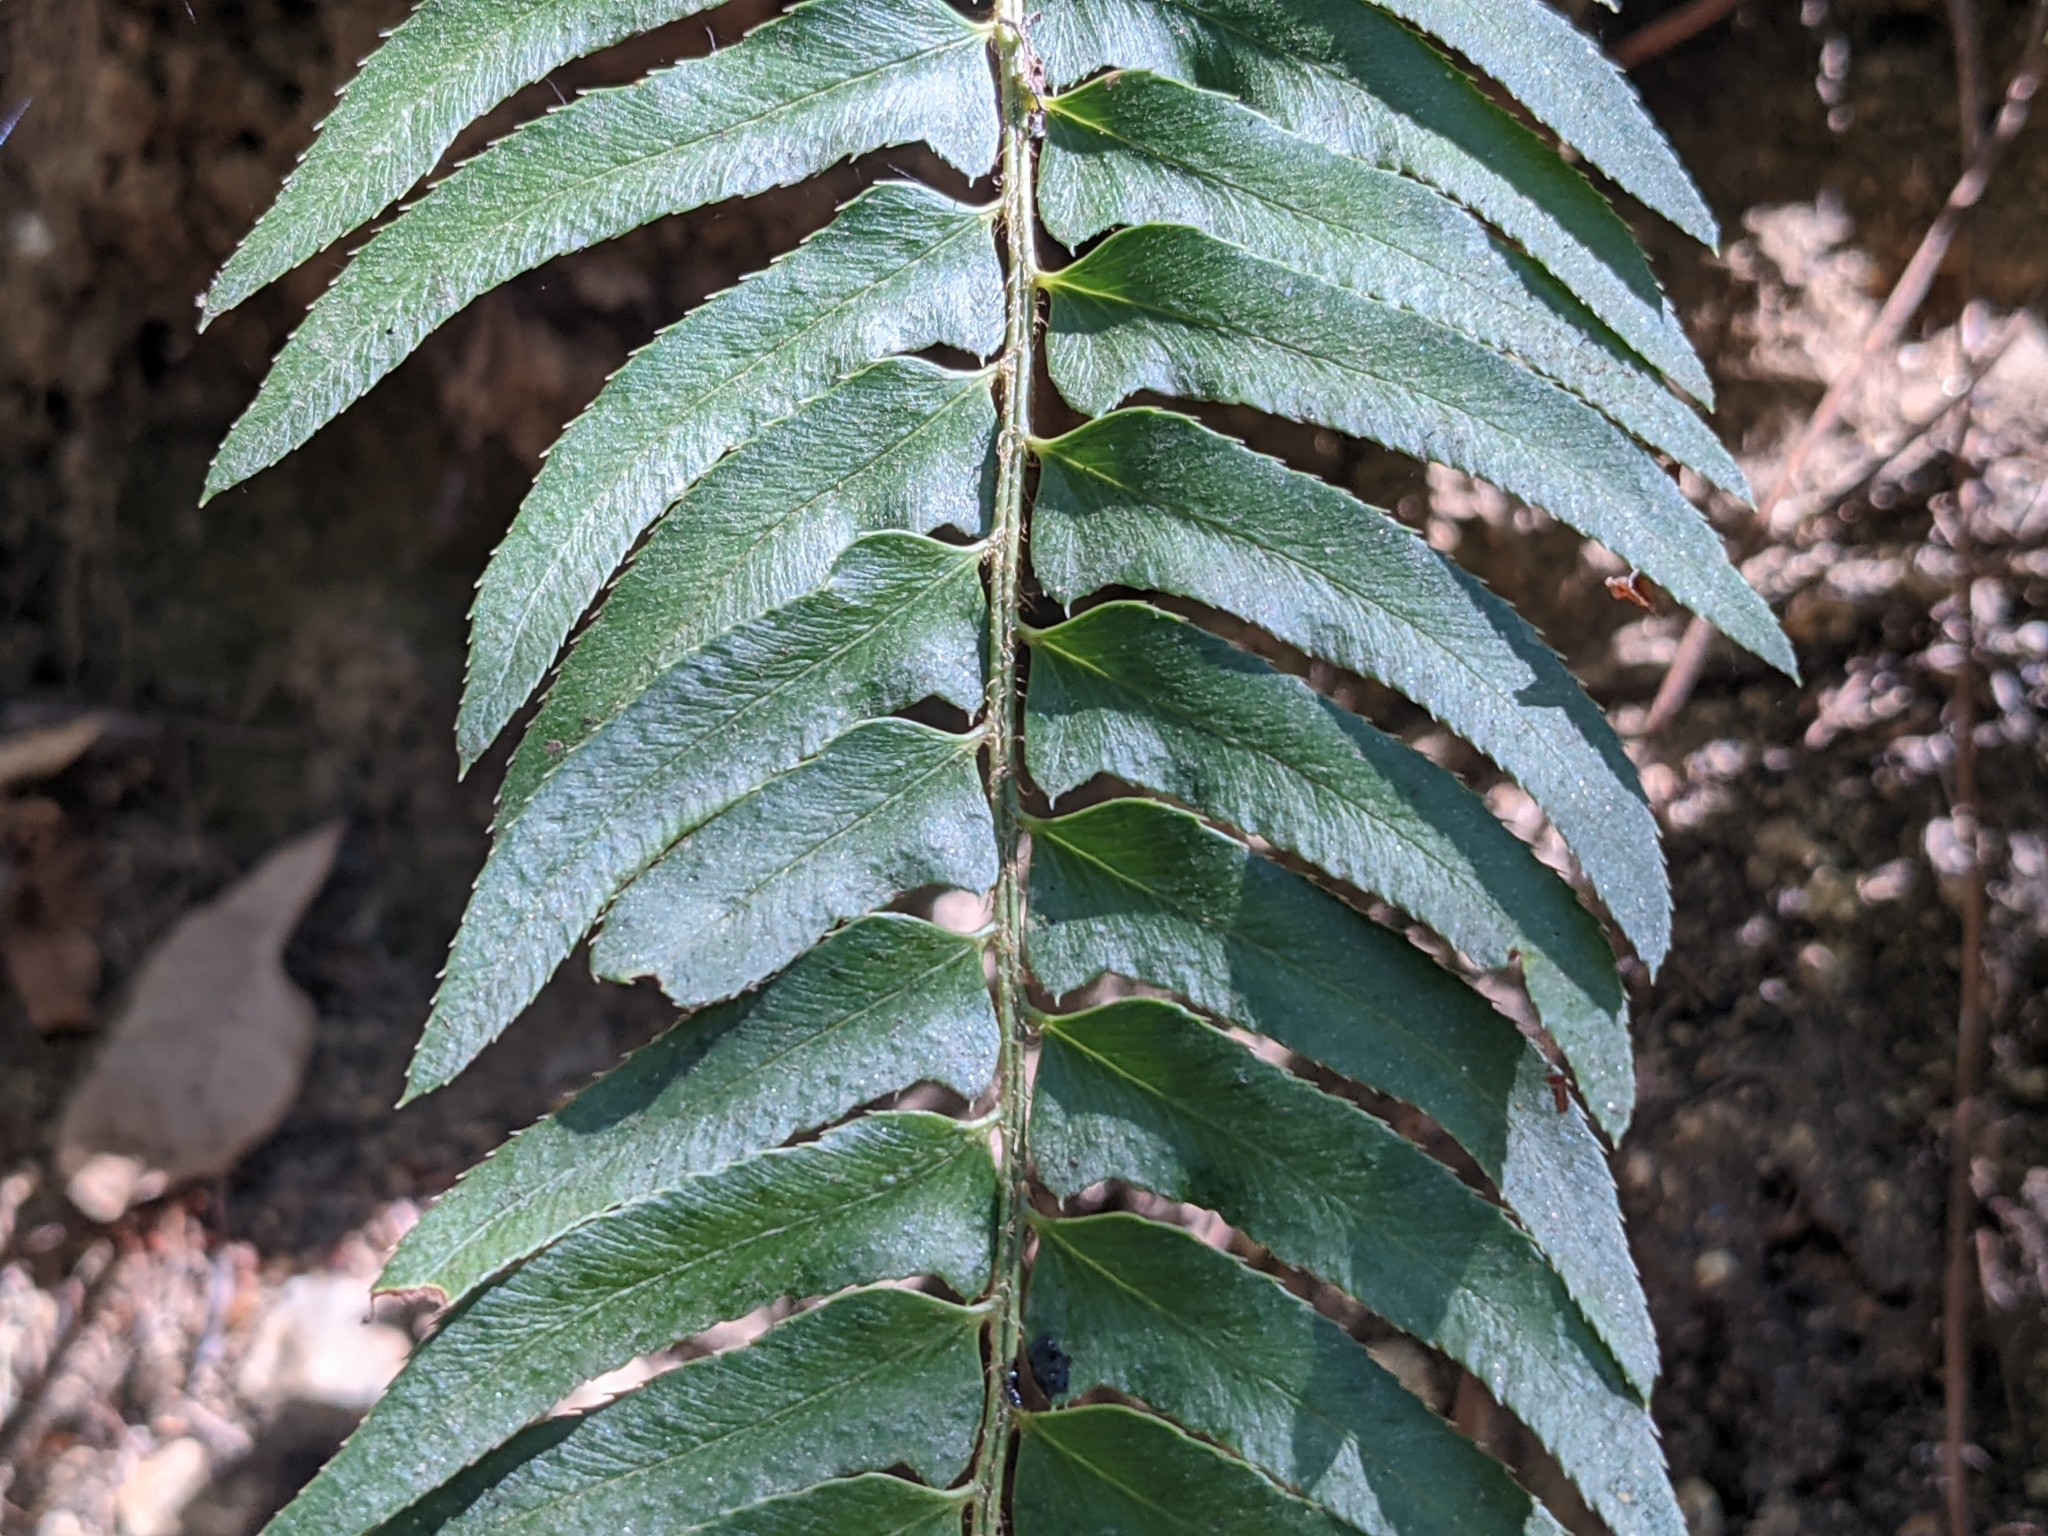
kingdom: Plantae
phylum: Tracheophyta
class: Polypodiopsida
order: Polypodiales
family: Dryopteridaceae
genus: Polystichum
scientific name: Polystichum munitum
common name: Western sword-fern
